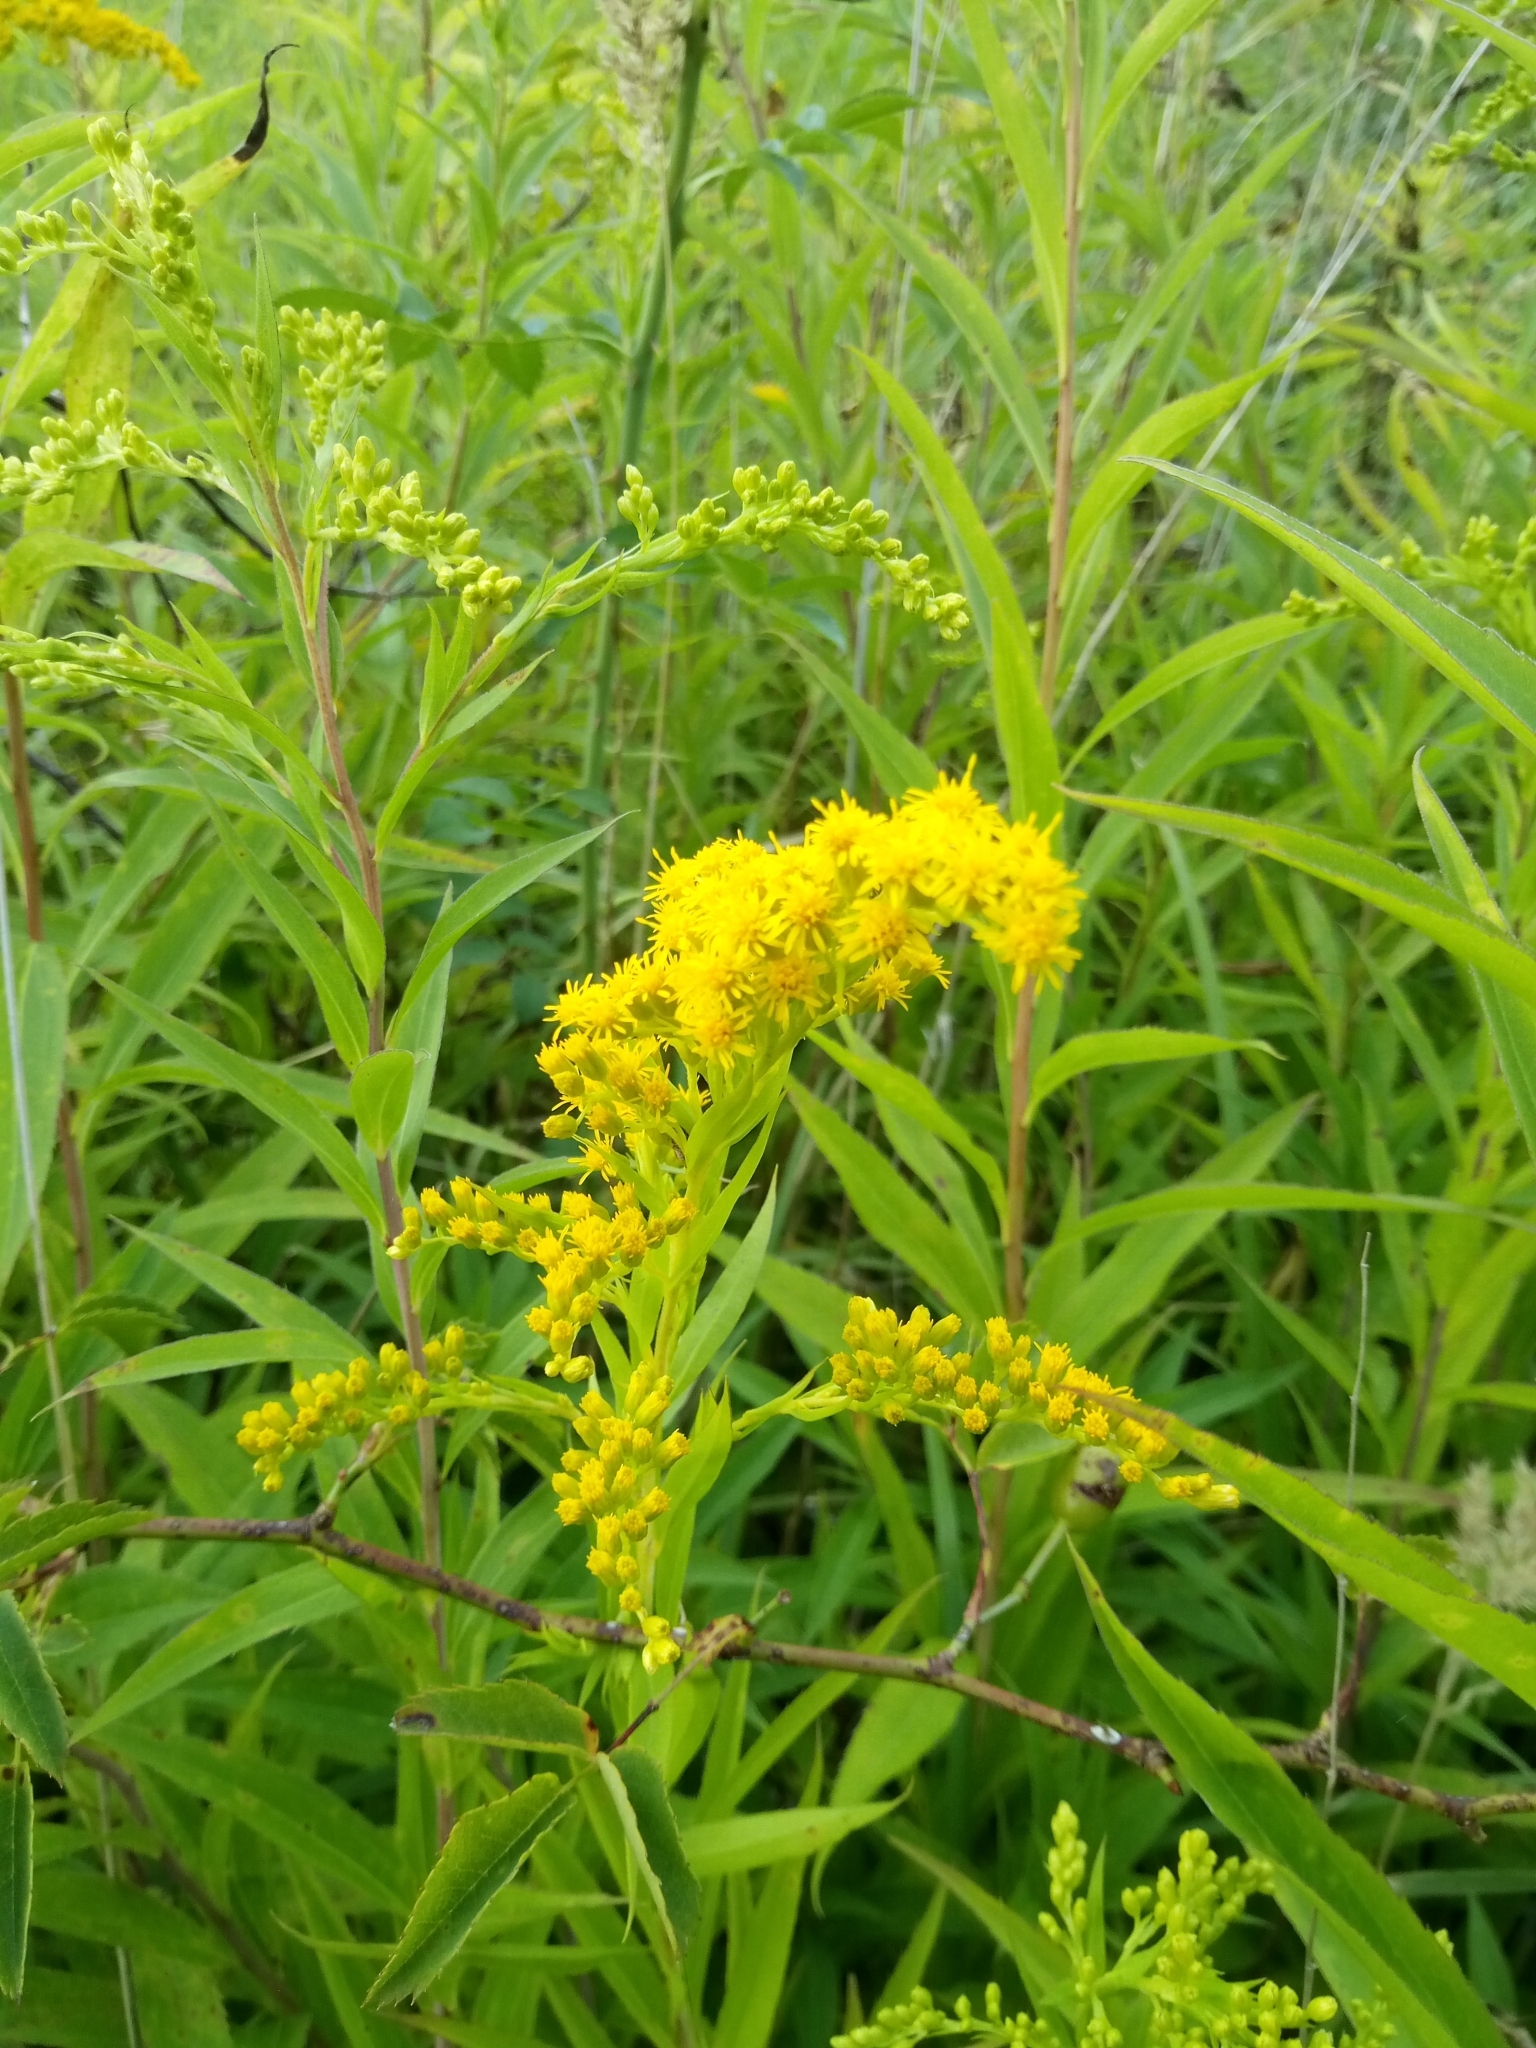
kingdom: Plantae
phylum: Tracheophyta
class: Magnoliopsida
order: Asterales
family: Asteraceae
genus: Solidago
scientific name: Solidago gigantea
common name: Giant goldenrod
